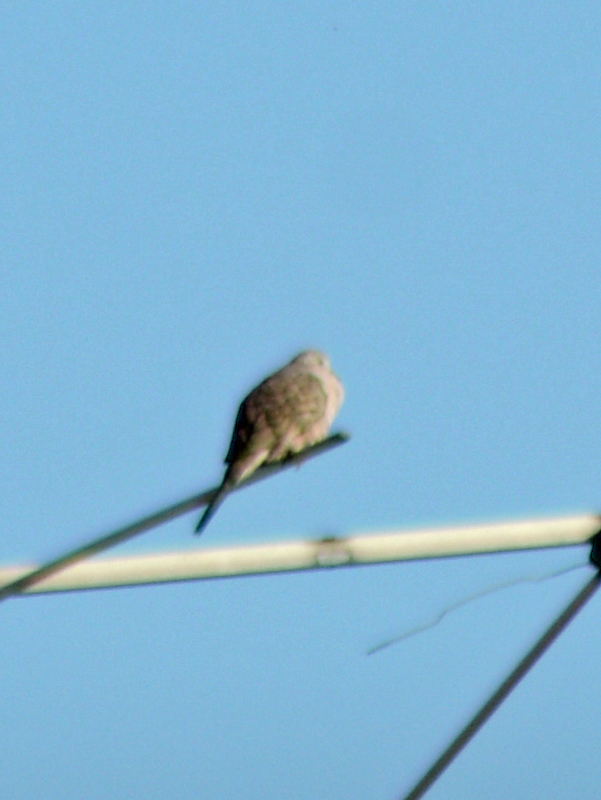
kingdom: Animalia
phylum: Chordata
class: Aves
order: Columbiformes
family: Columbidae
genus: Columbina
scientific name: Columbina inca
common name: Inca dove
